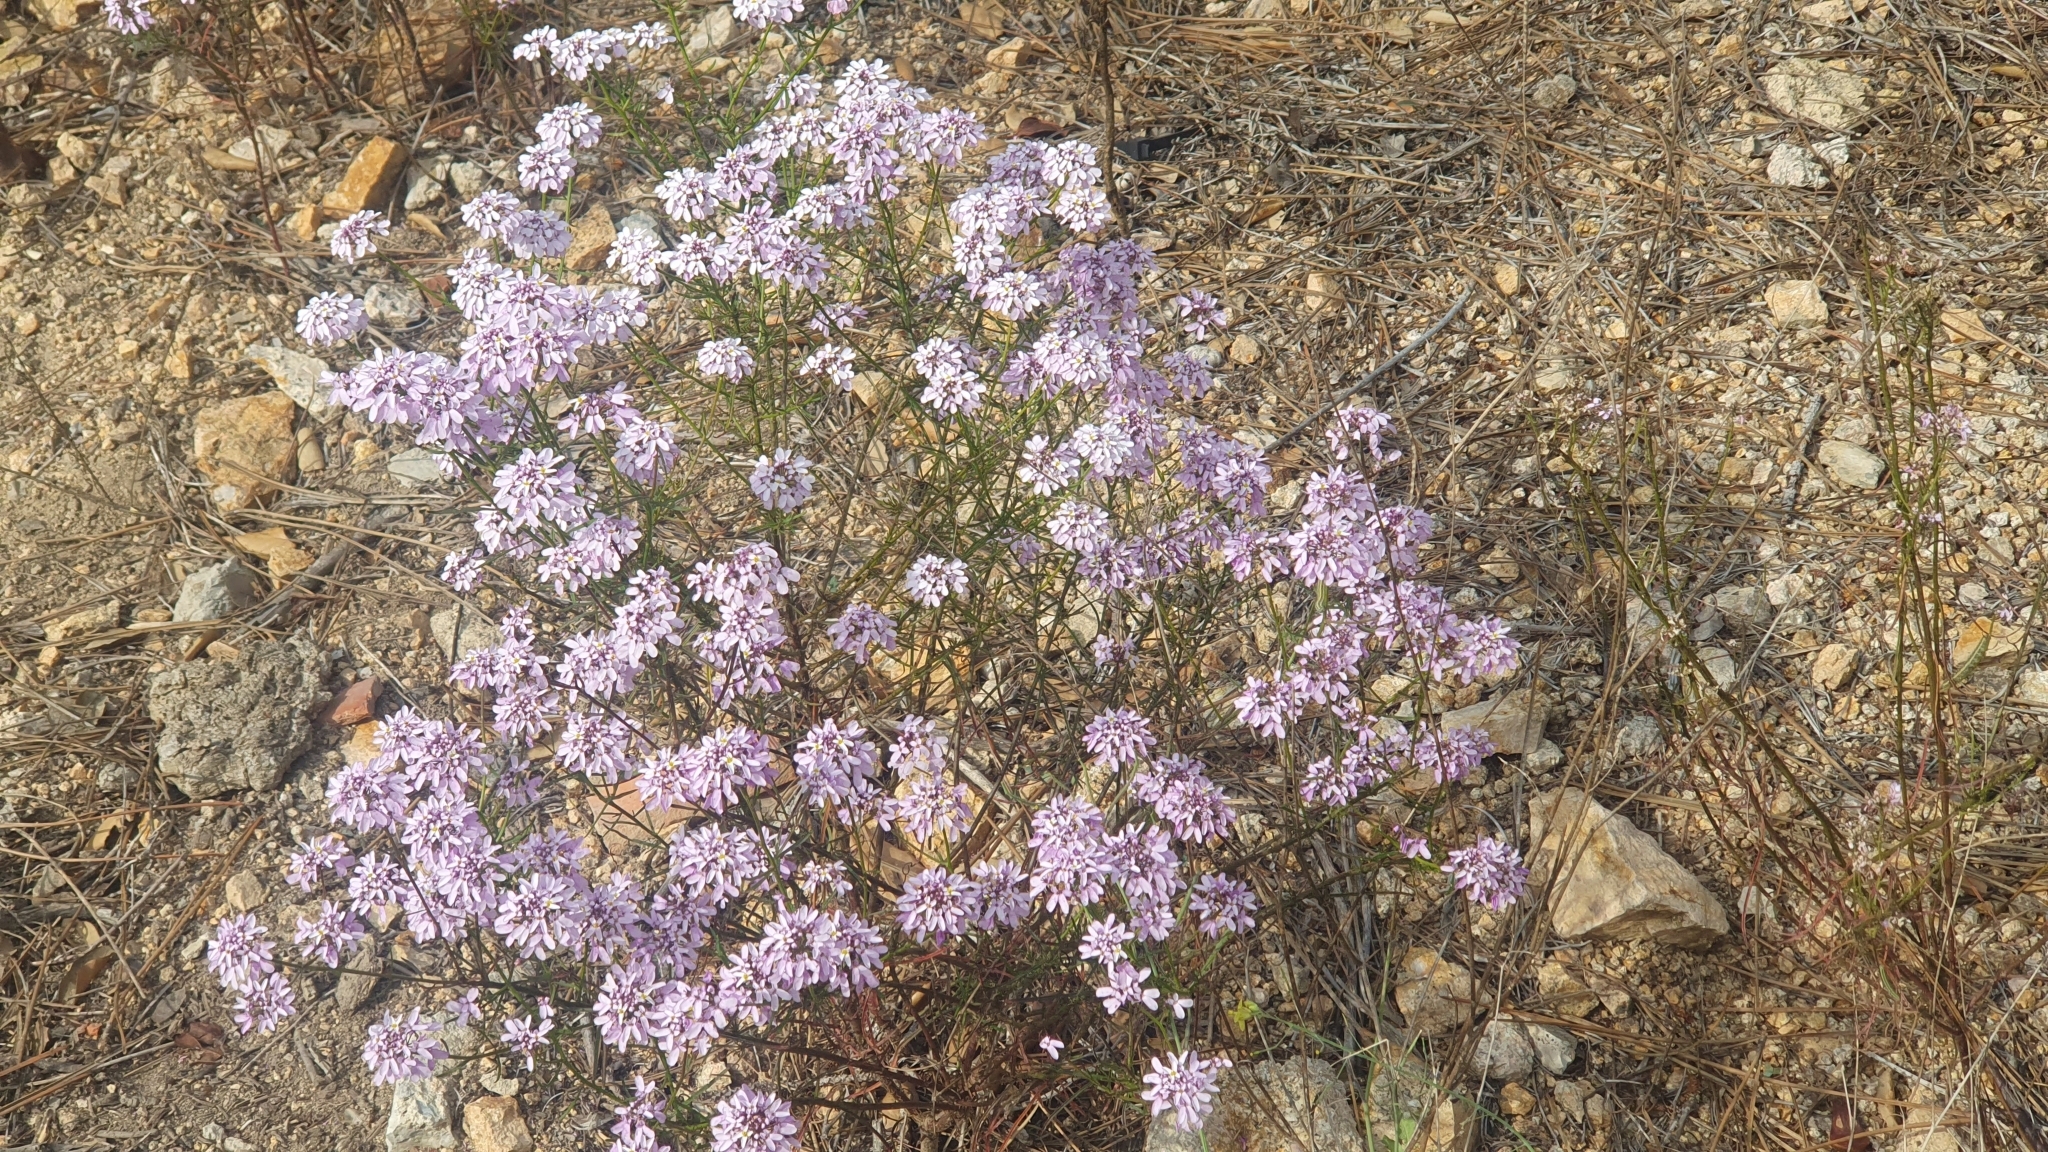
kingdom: Plantae
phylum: Tracheophyta
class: Magnoliopsida
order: Brassicales
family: Brassicaceae
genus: Iberis
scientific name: Iberis linifolia
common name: Candytuft
